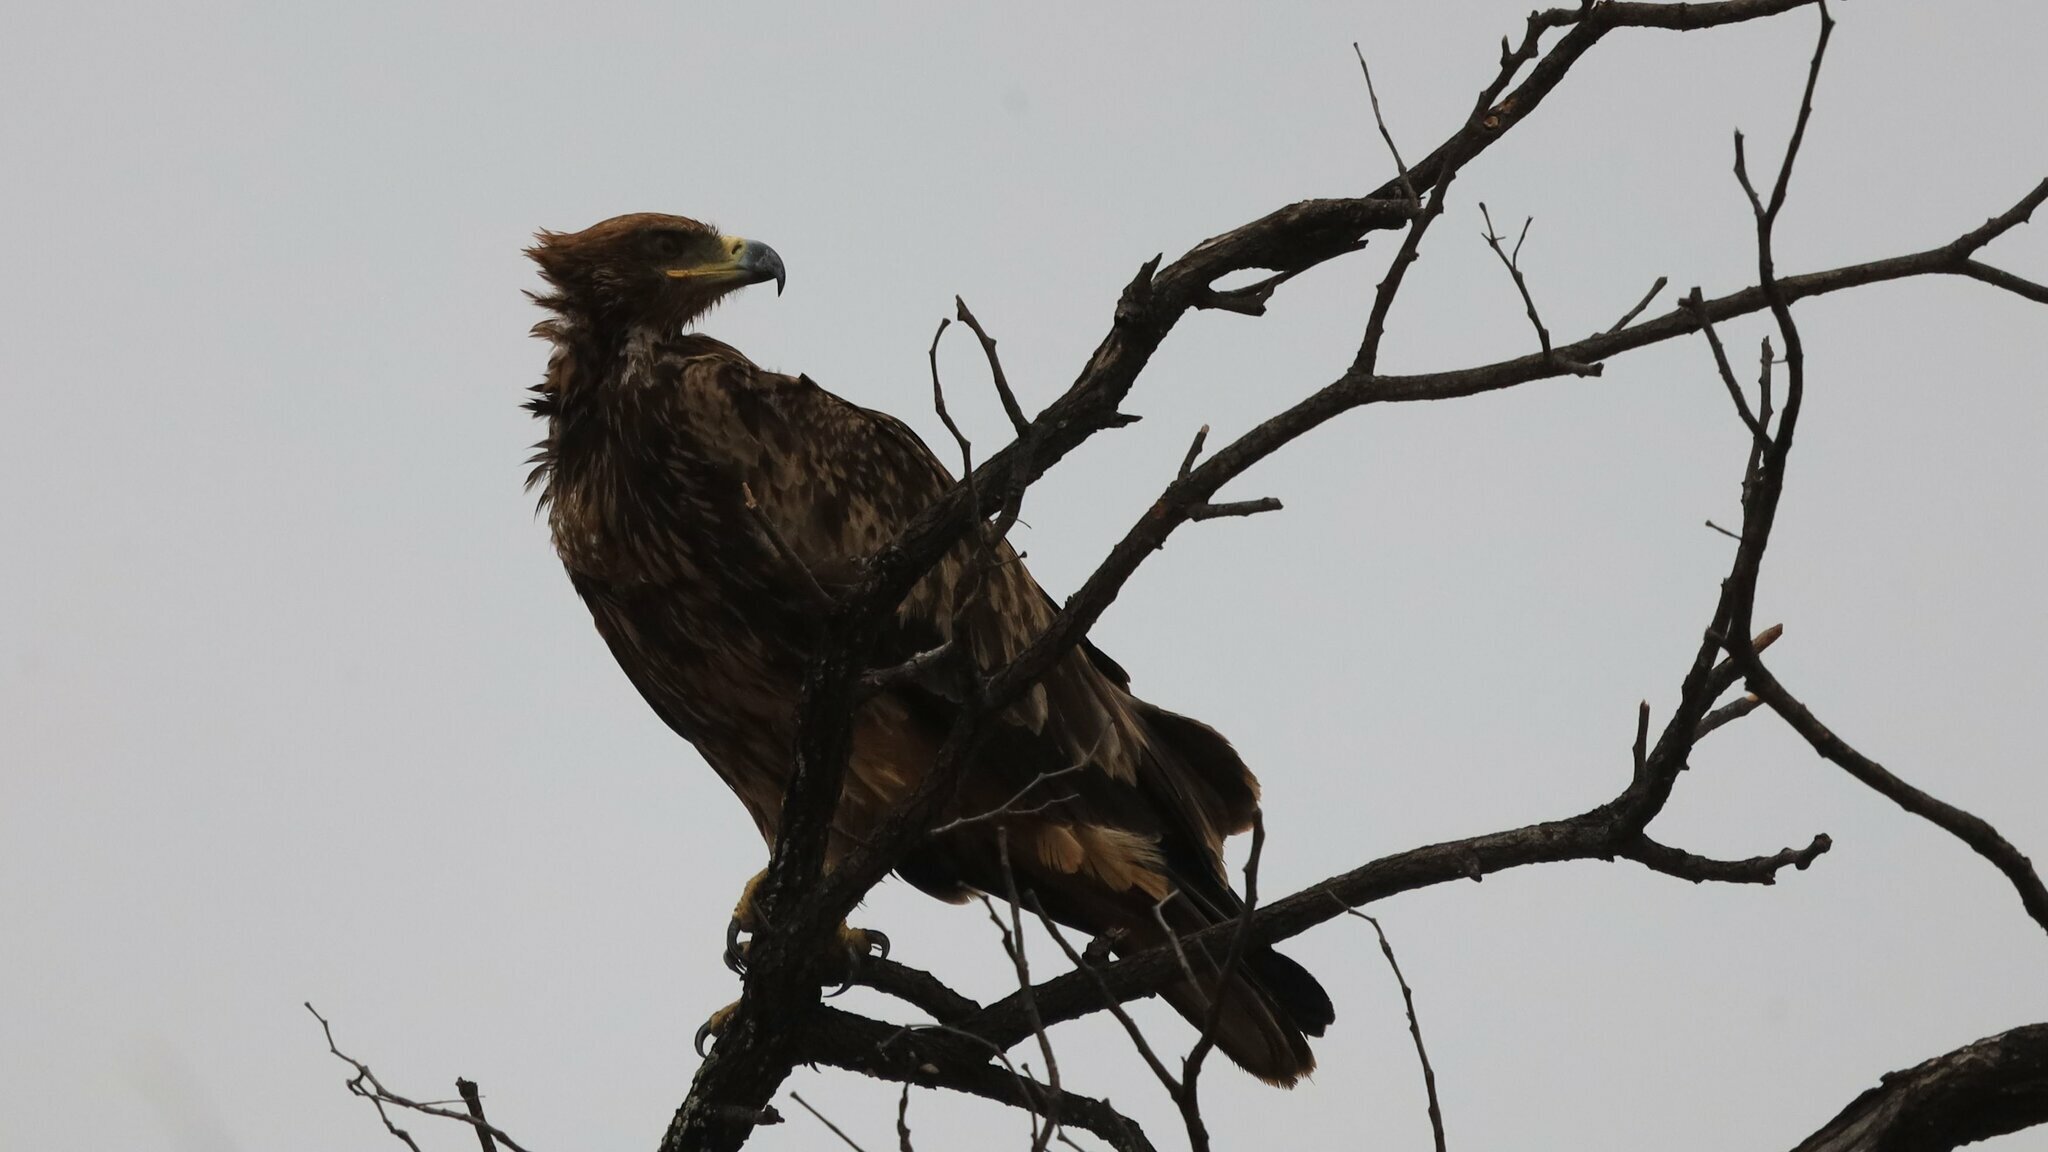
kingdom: Animalia
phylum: Chordata
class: Aves
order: Accipitriformes
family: Accipitridae
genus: Aquila
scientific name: Aquila rapax
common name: Tawny eagle
